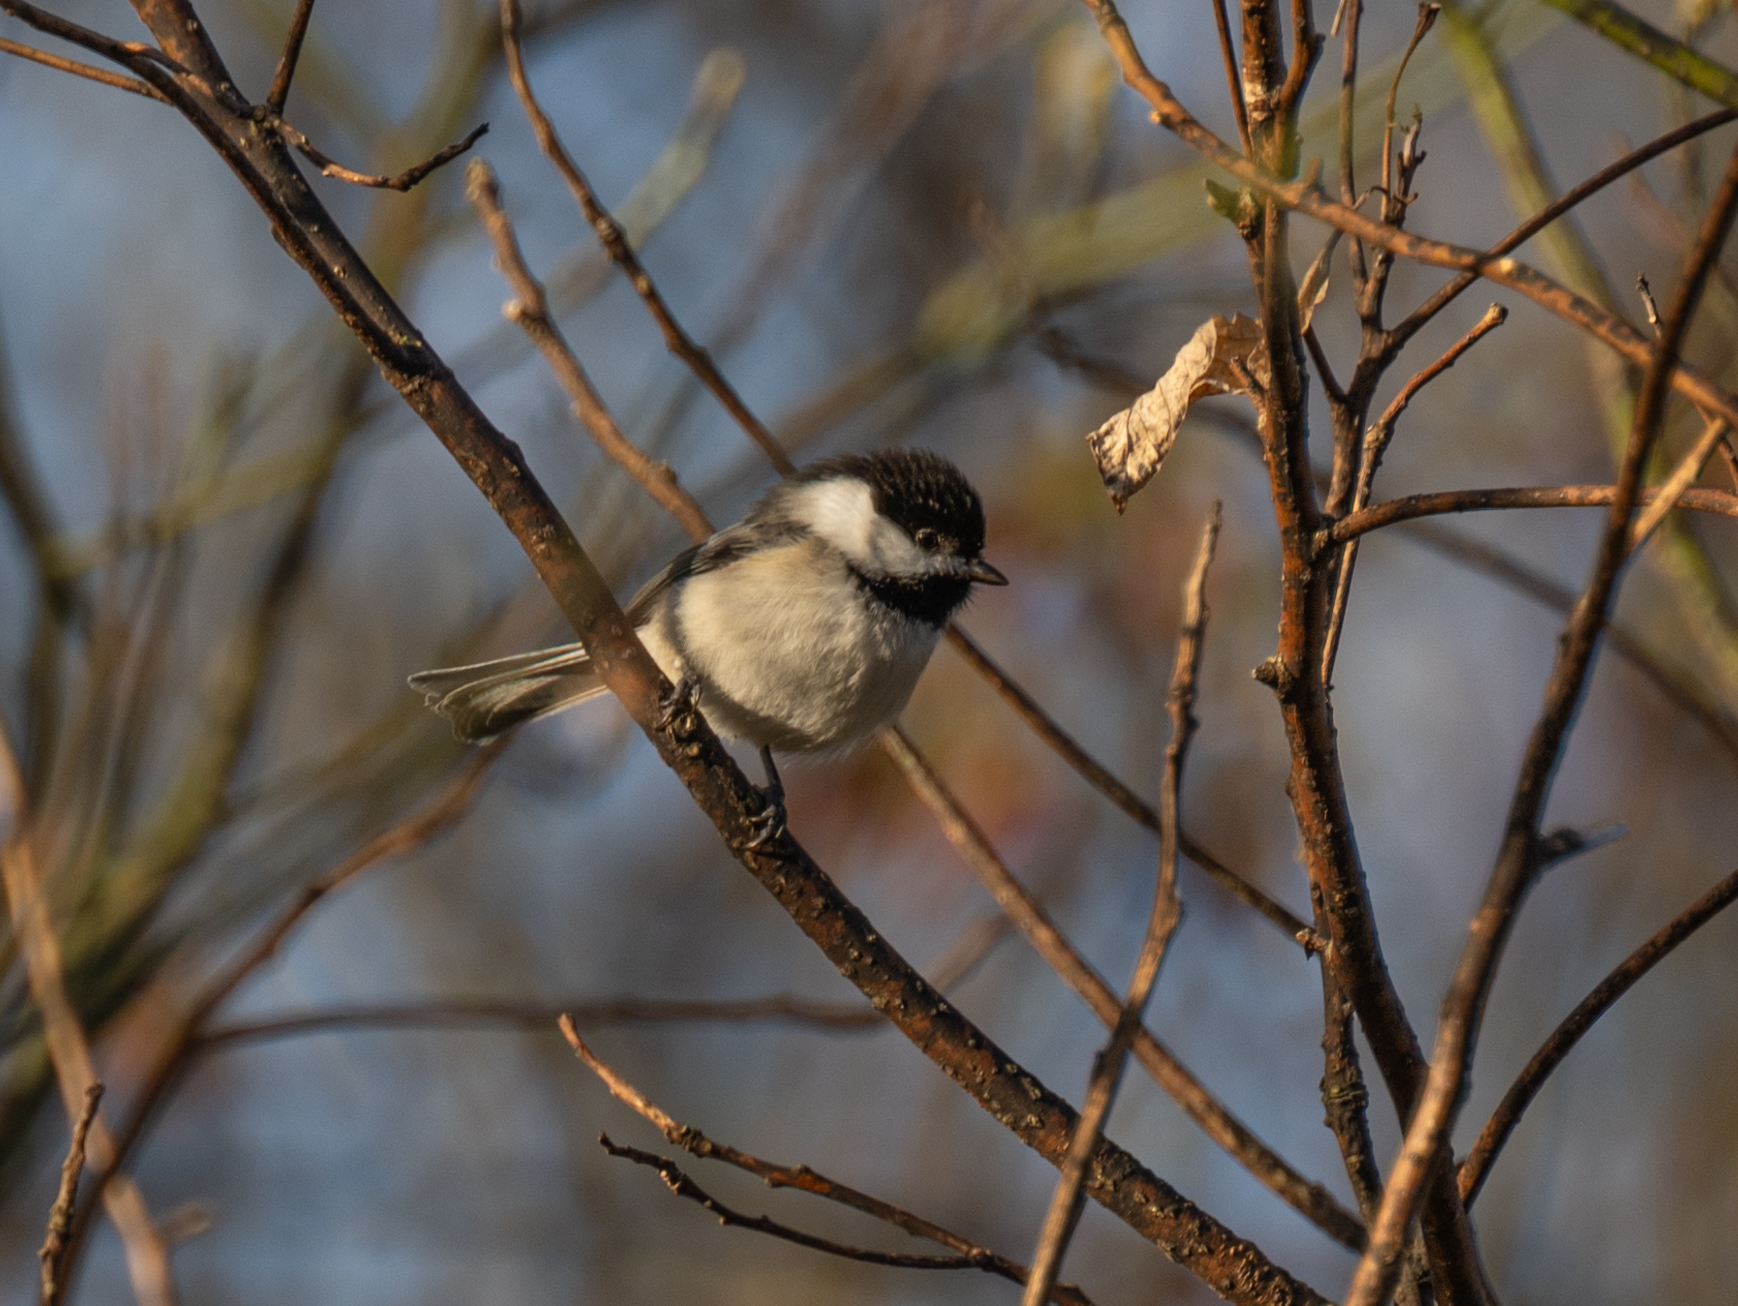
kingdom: Animalia
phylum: Chordata
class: Aves
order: Passeriformes
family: Paridae
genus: Poecile
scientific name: Poecile atricapillus
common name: Black-capped chickadee
